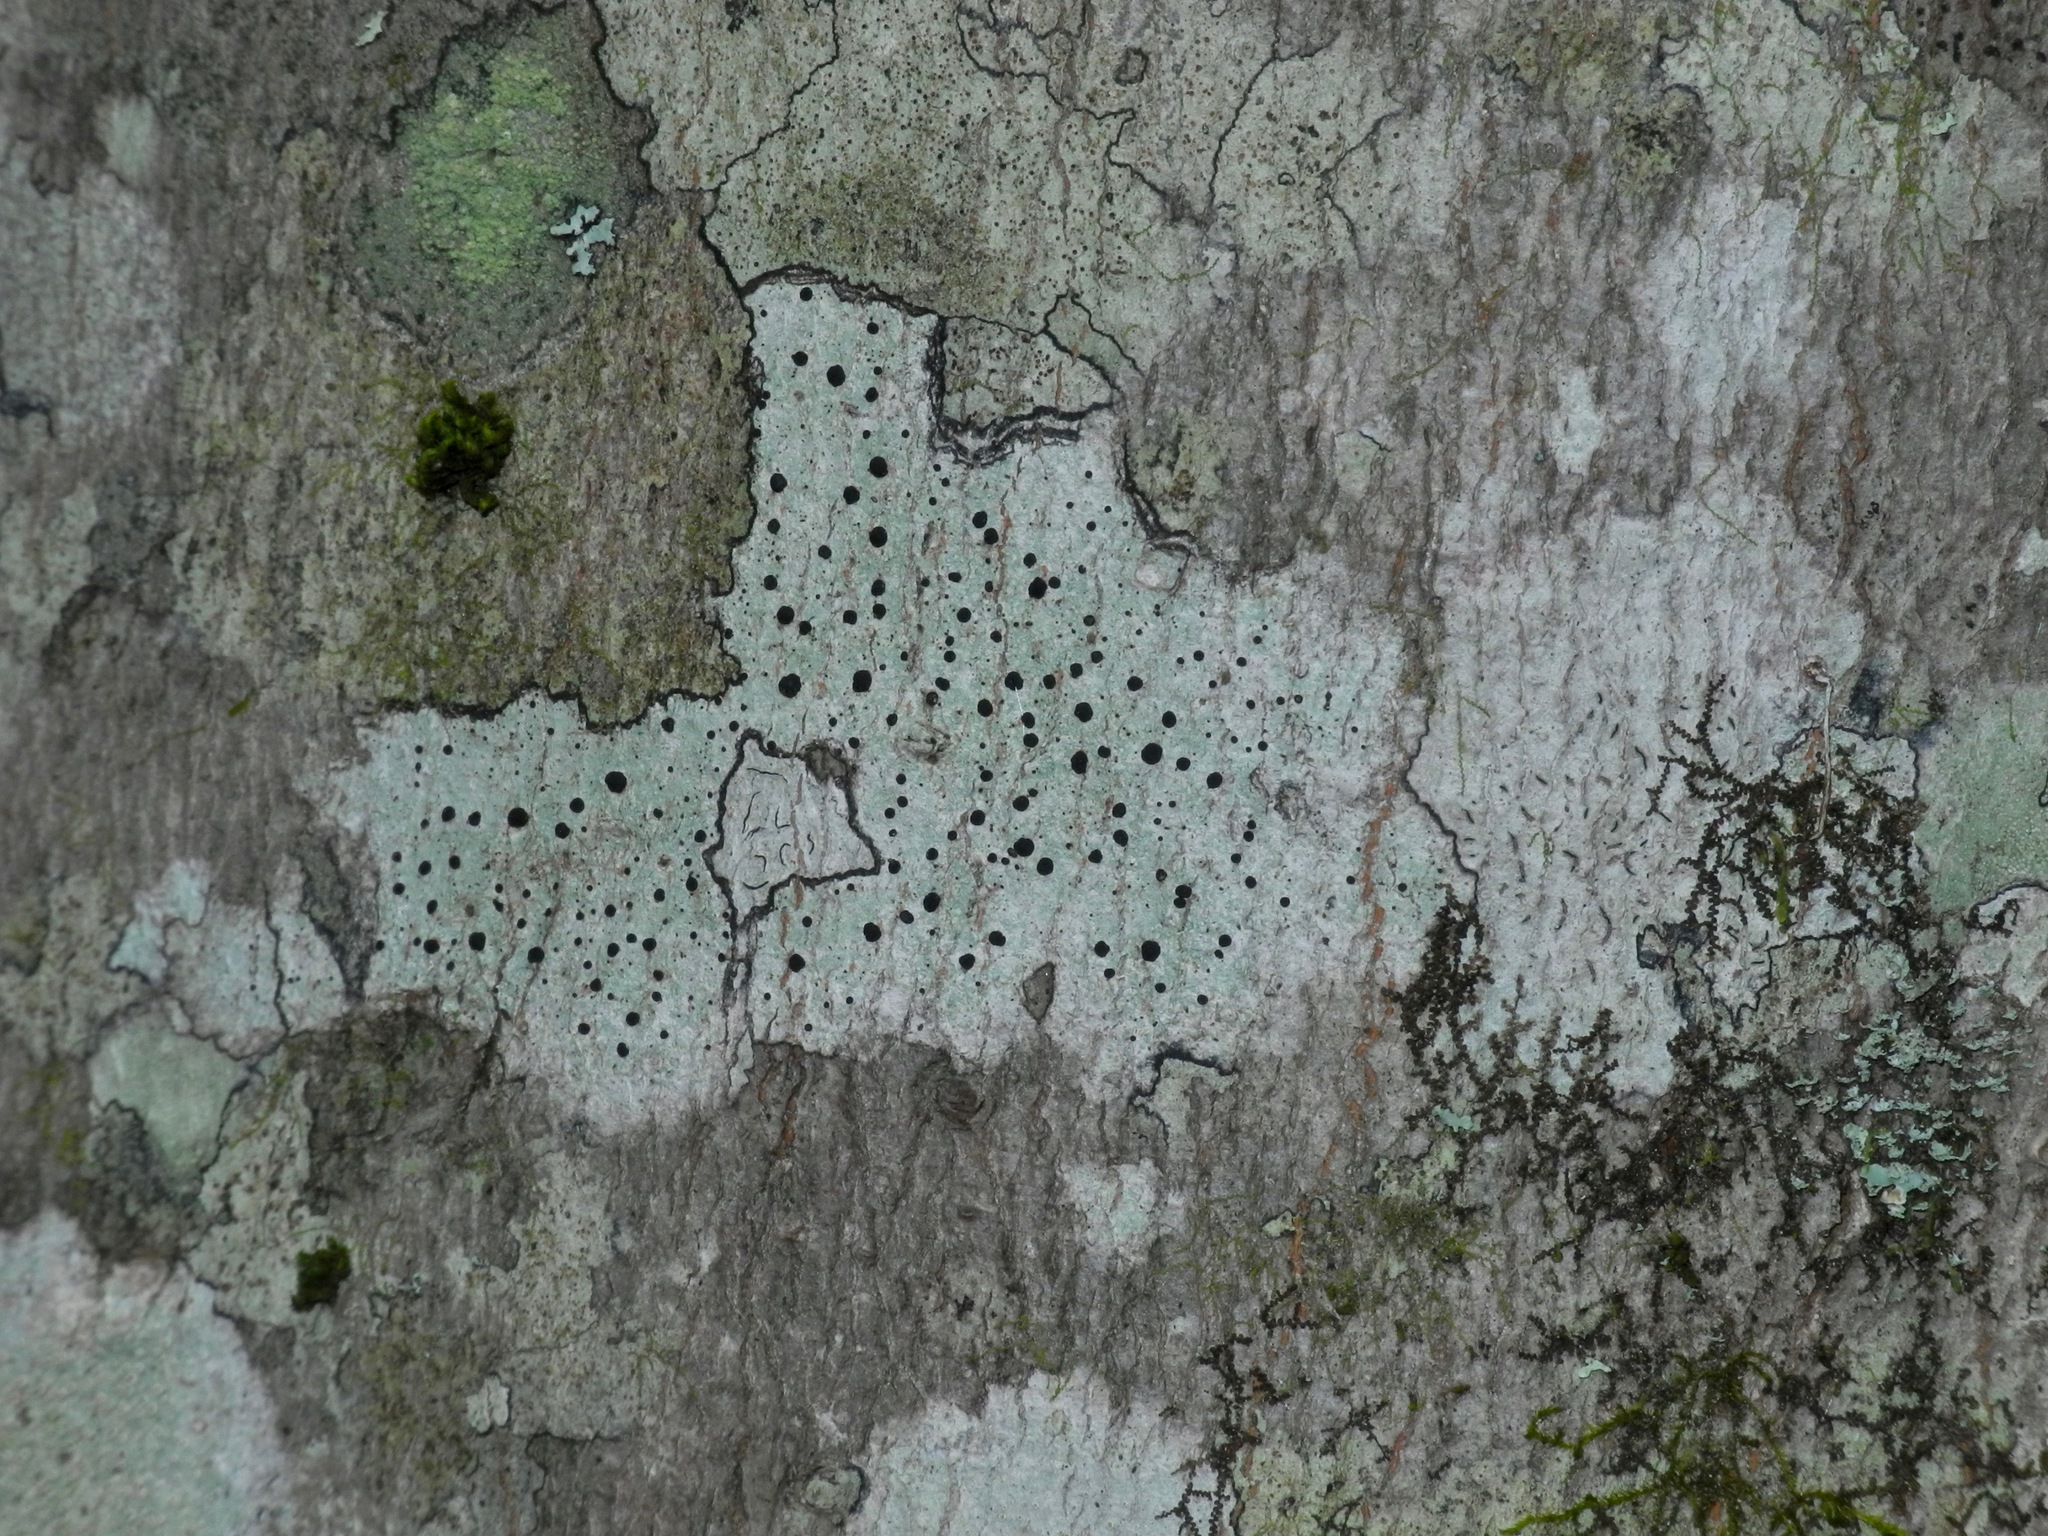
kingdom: Fungi
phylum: Ascomycota
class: Lecanoromycetes
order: Caliciales
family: Caliciaceae
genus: Buellia
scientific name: Buellia erubescens
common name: Common button lichen
